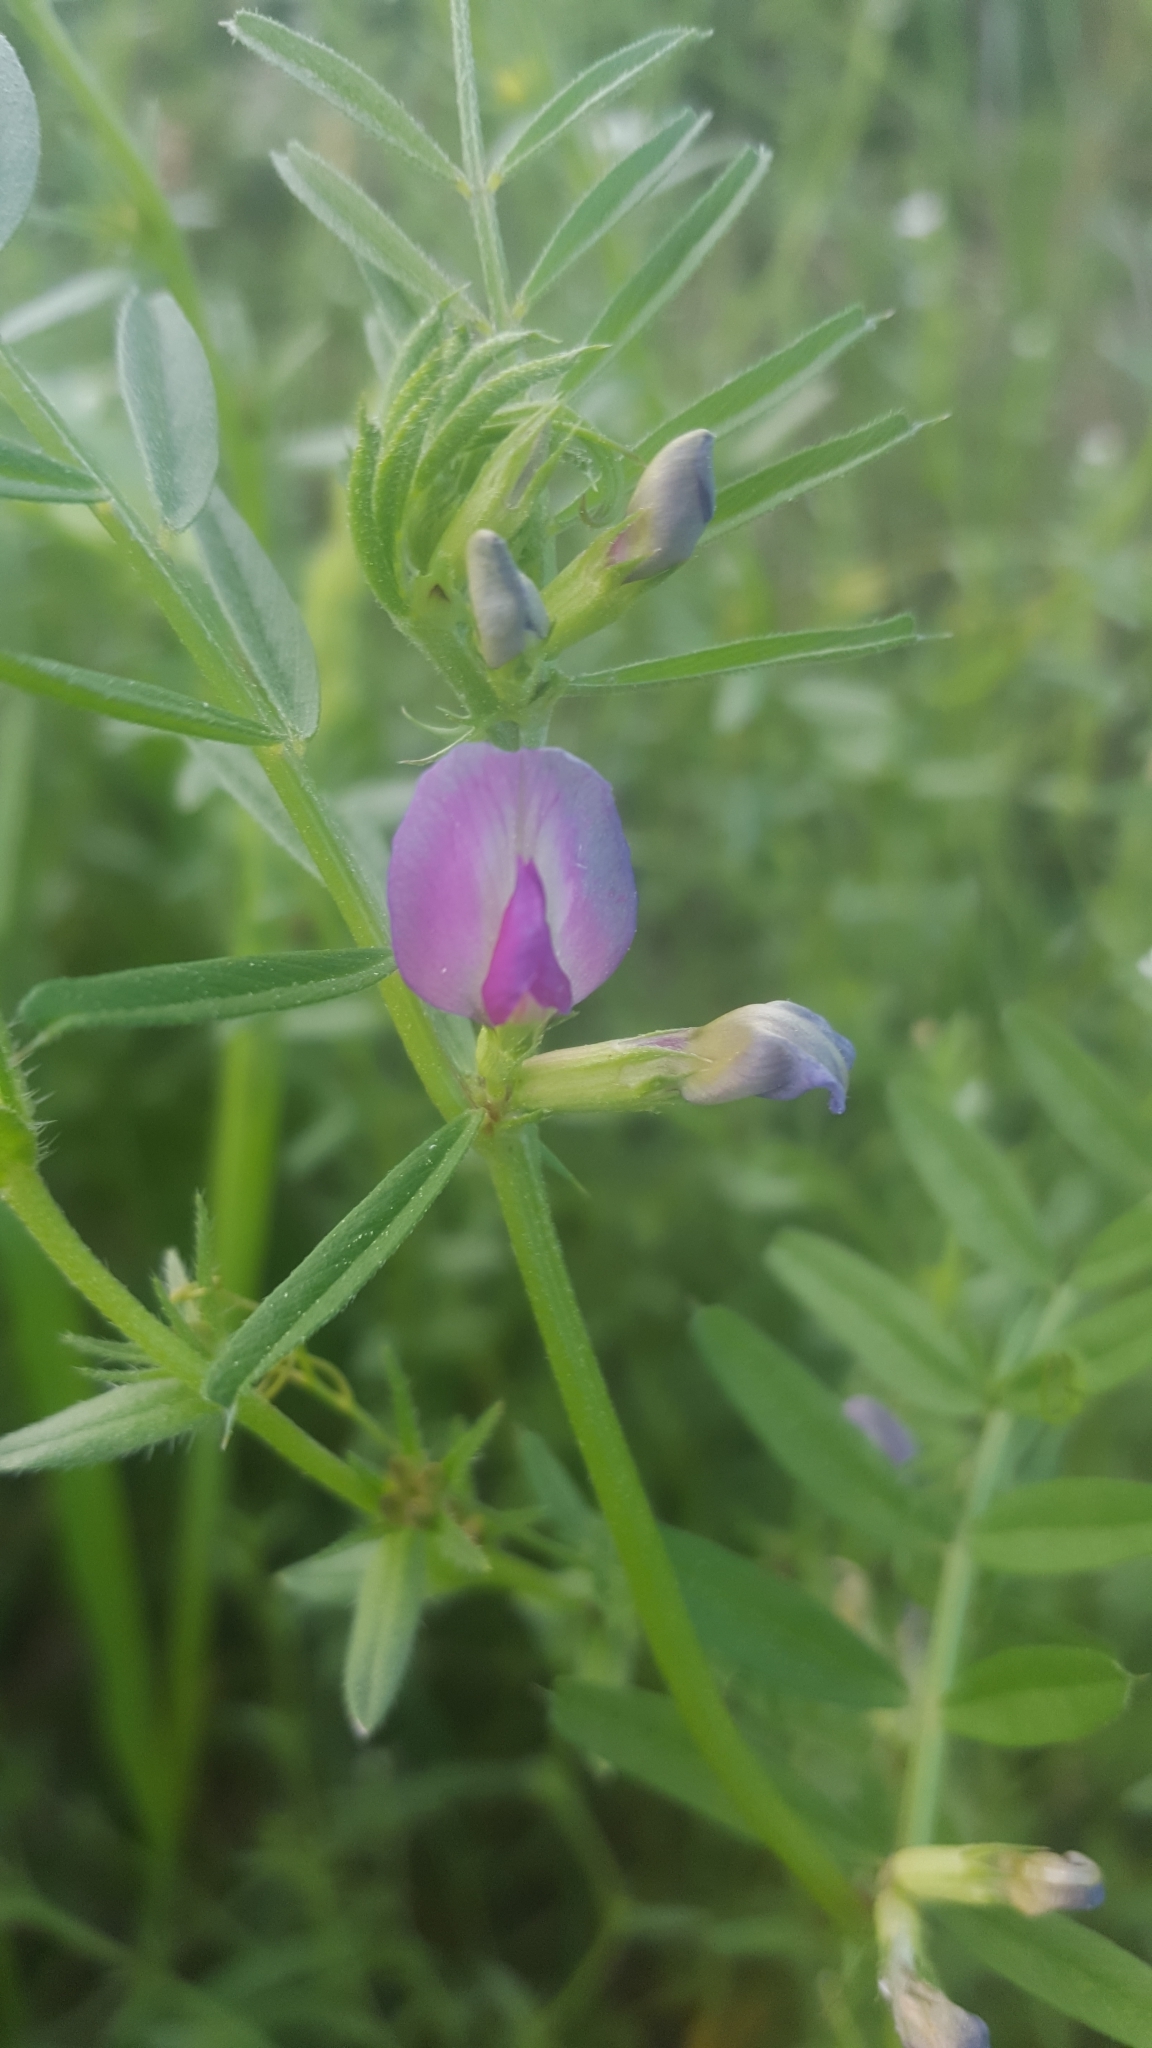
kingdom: Plantae
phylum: Tracheophyta
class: Magnoliopsida
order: Fabales
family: Fabaceae
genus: Vicia
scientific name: Vicia sativa
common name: Garden vetch
